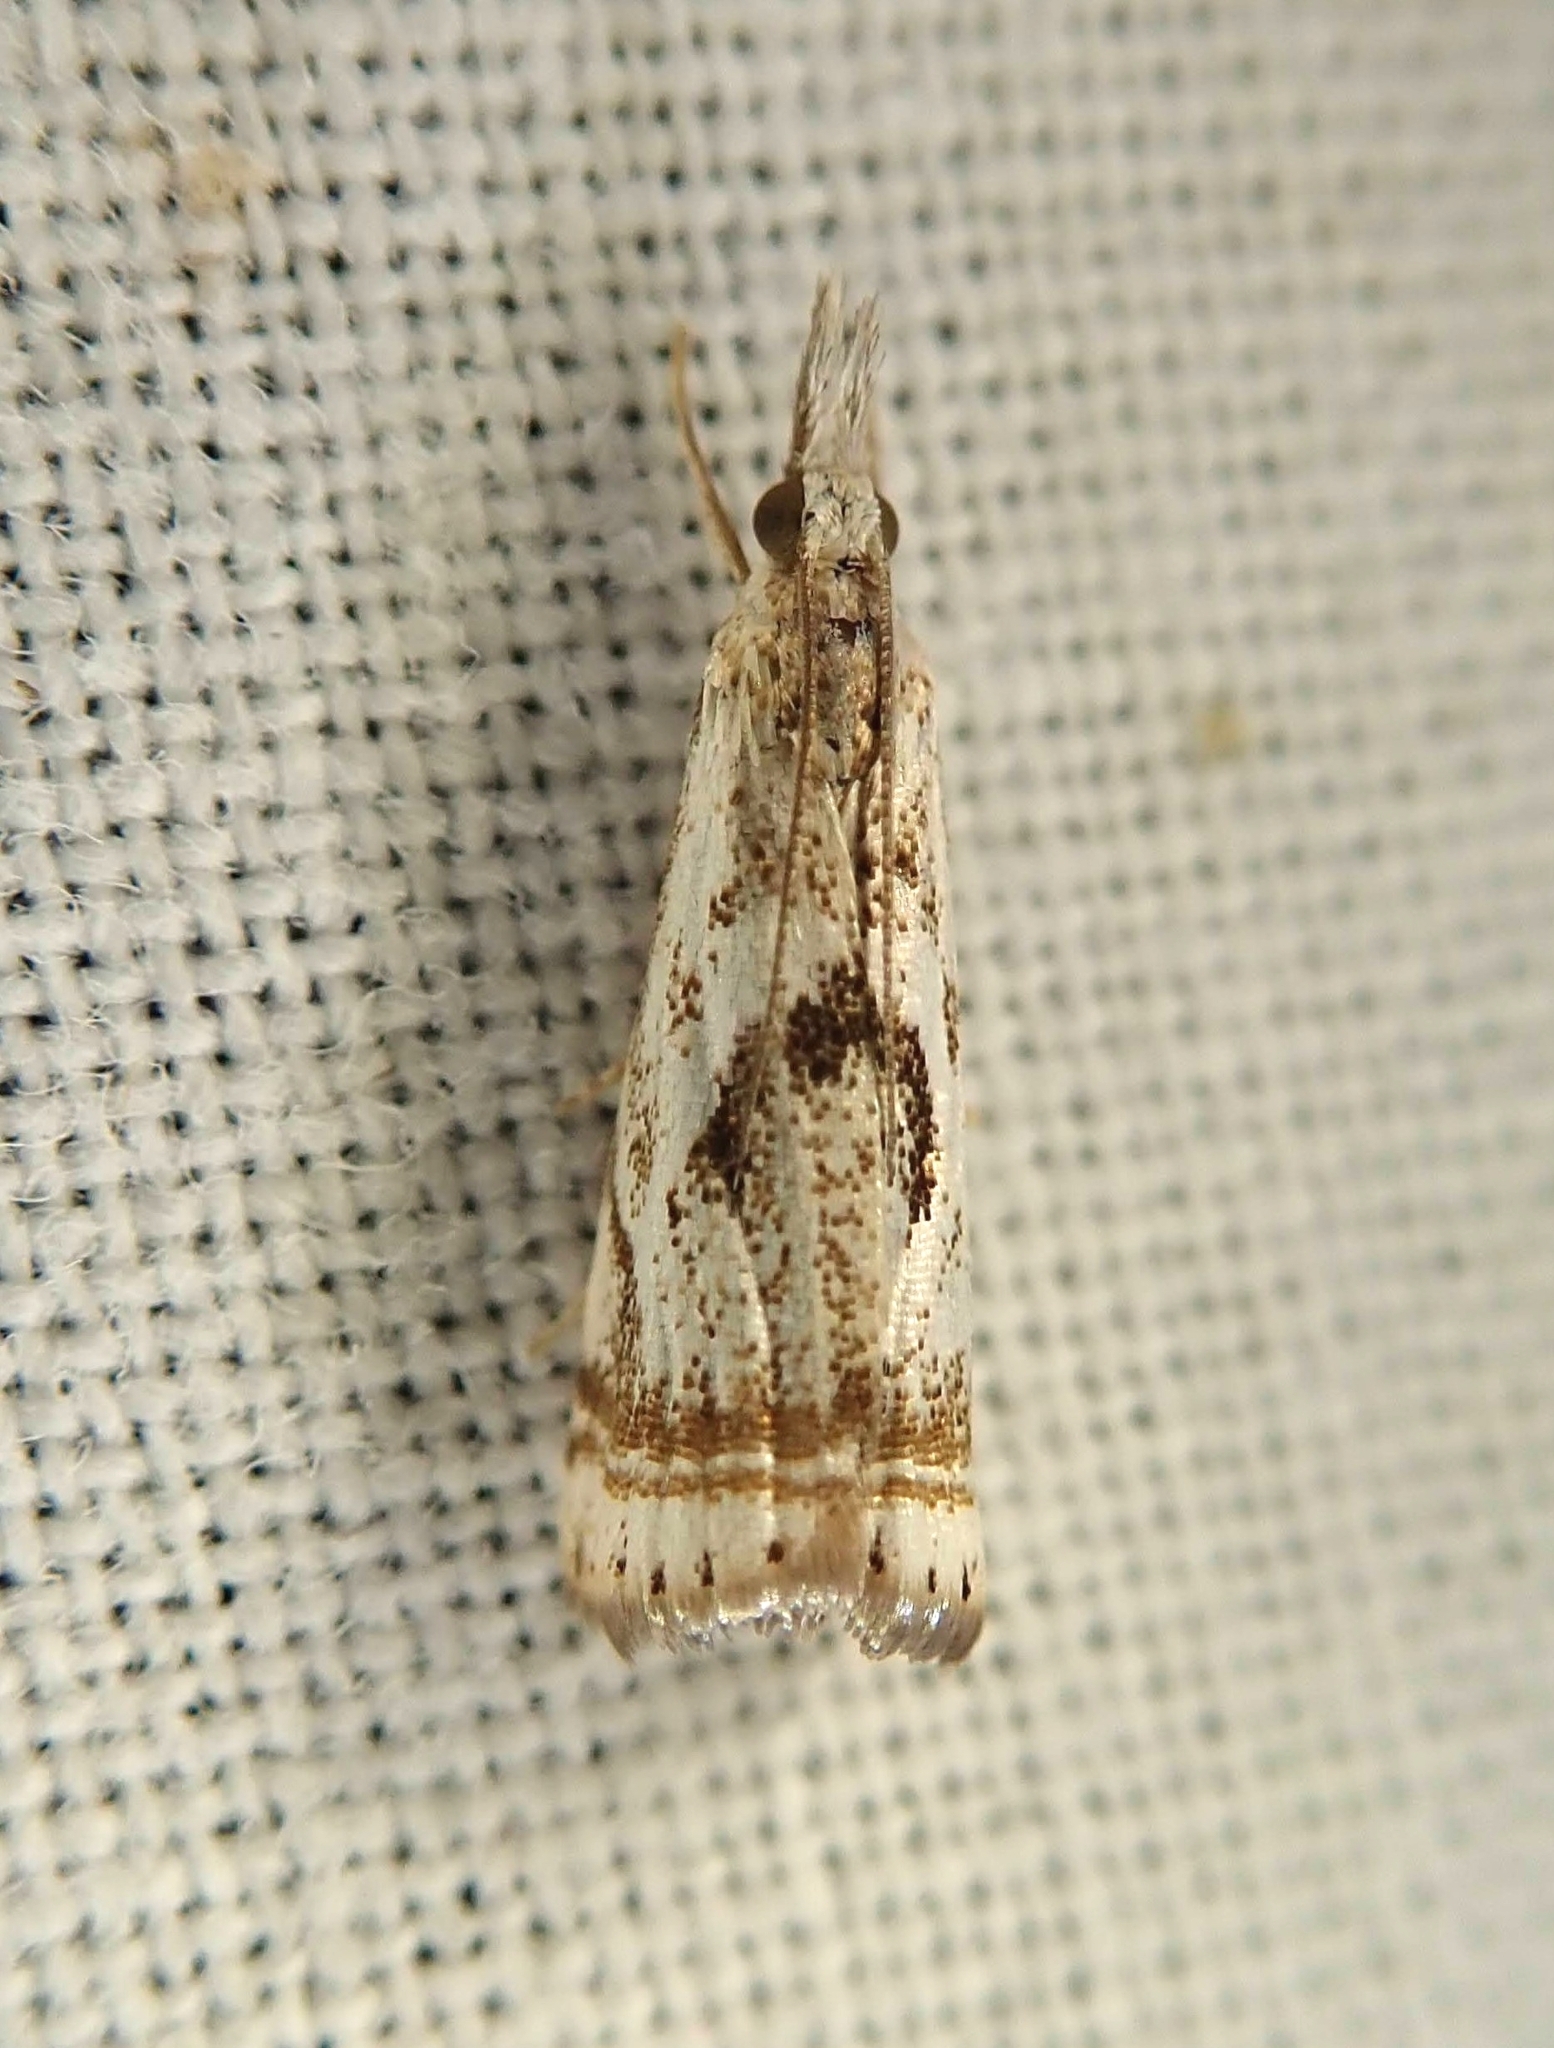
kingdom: Animalia
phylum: Arthropoda
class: Insecta
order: Lepidoptera
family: Crambidae
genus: Microcrambus
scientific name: Microcrambus elegans
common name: Elegant grass-veneer
